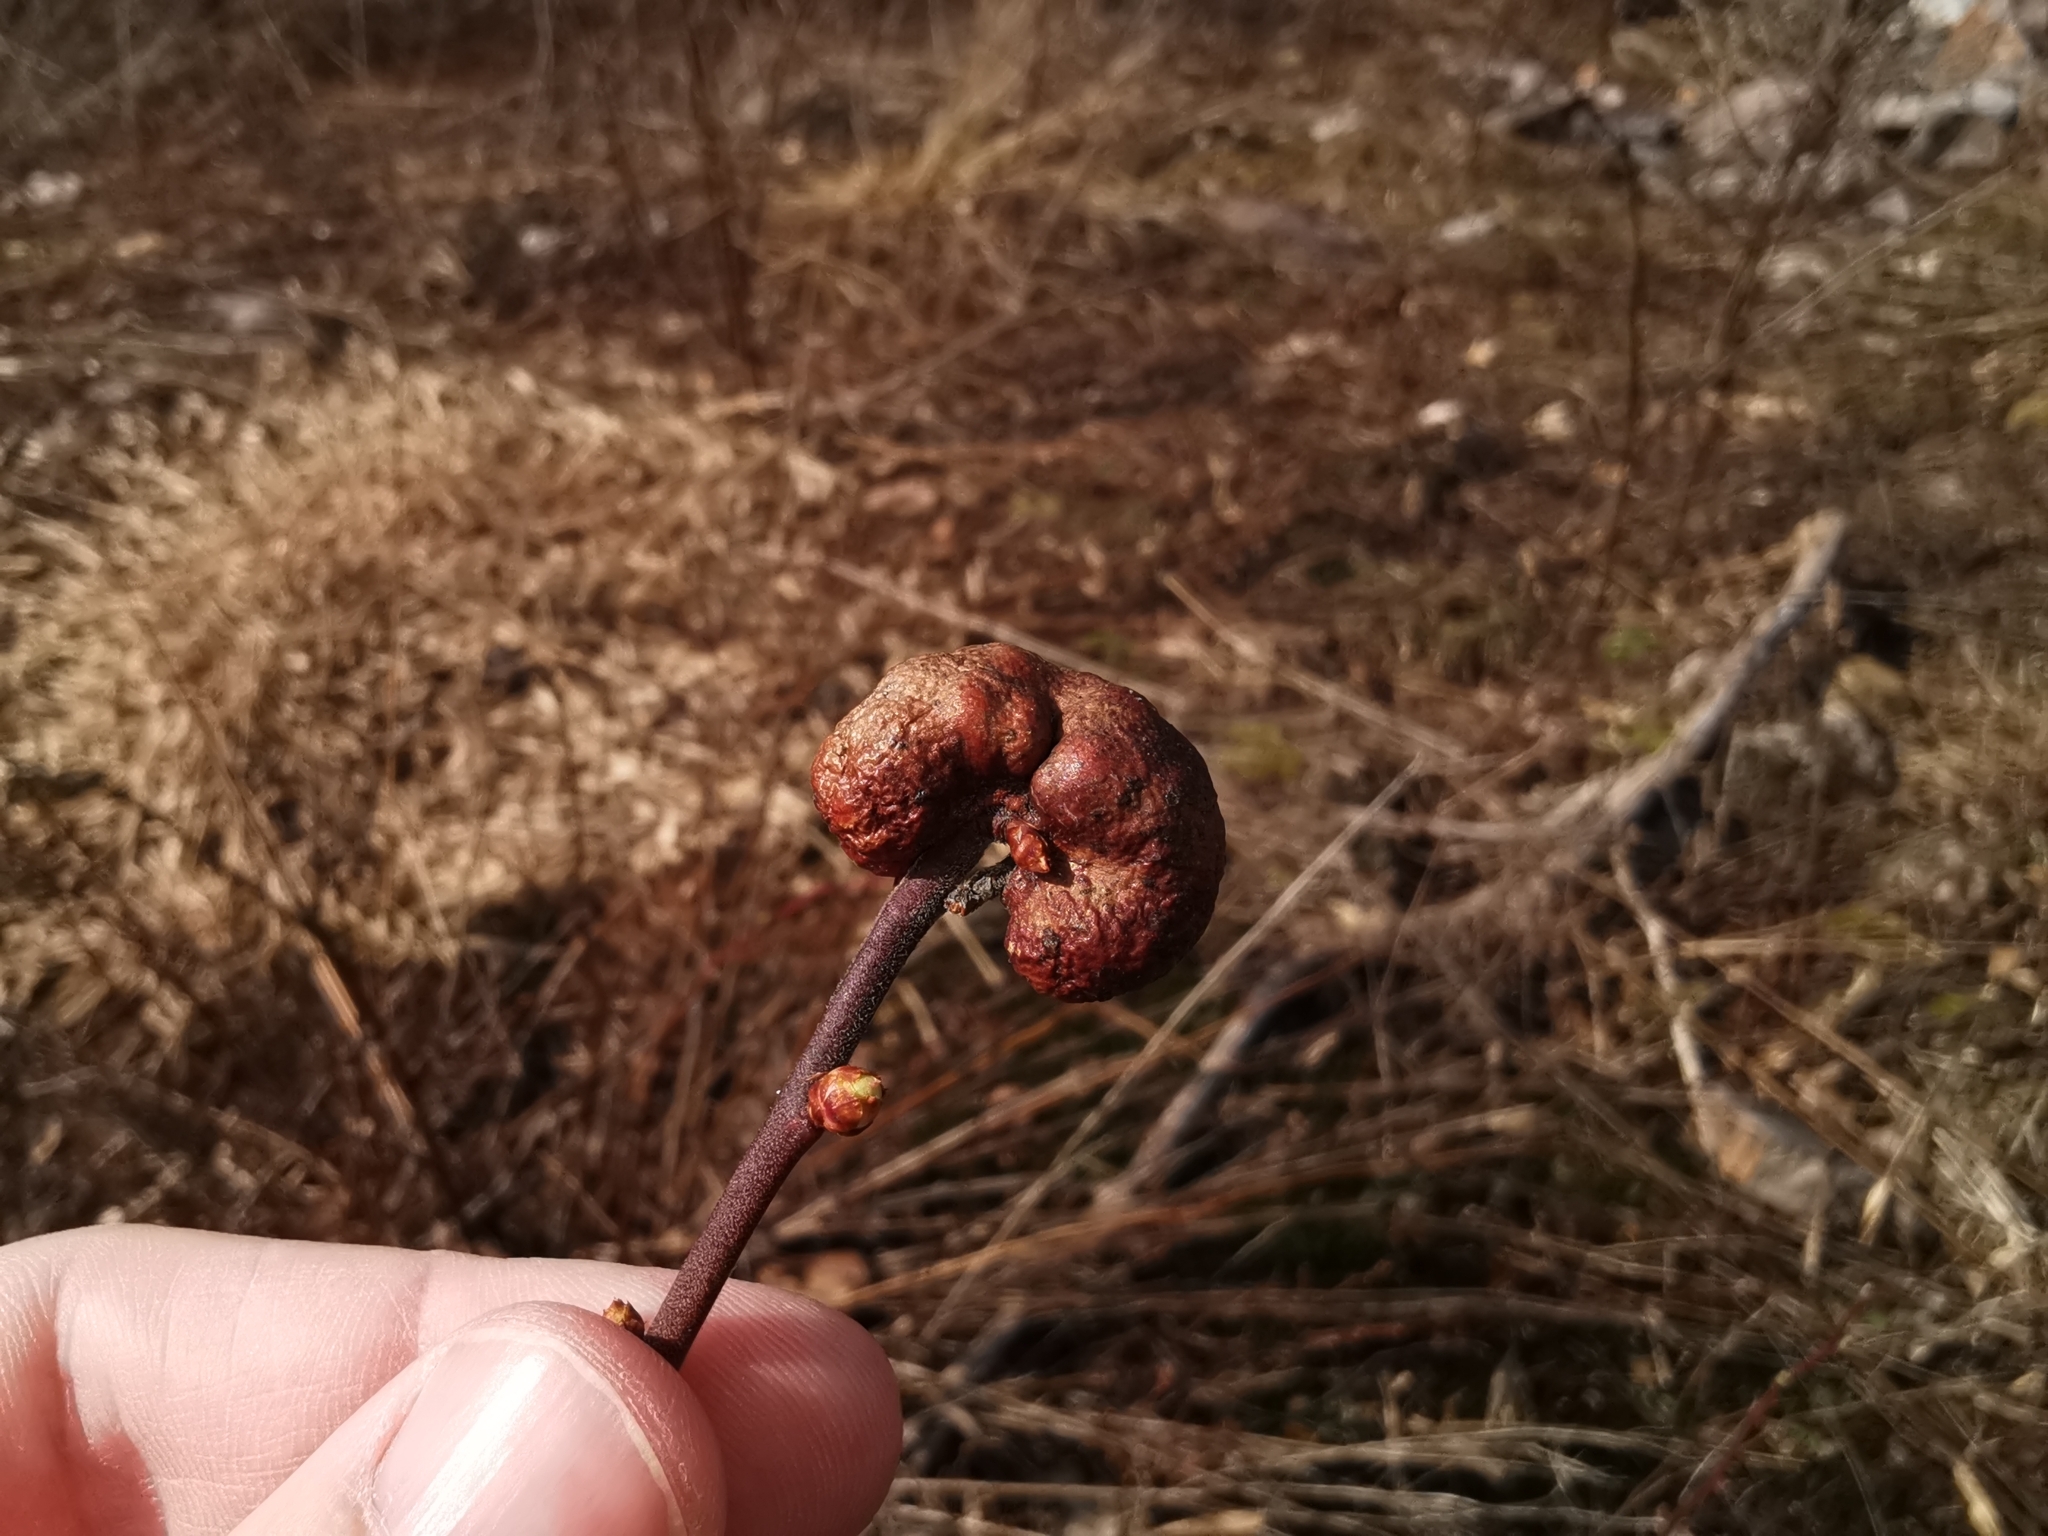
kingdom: Animalia
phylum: Arthropoda
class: Insecta
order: Hymenoptera
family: Pteromalidae
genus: Hemadas
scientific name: Hemadas nubilipennis
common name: Blueberry stem gall wasp
